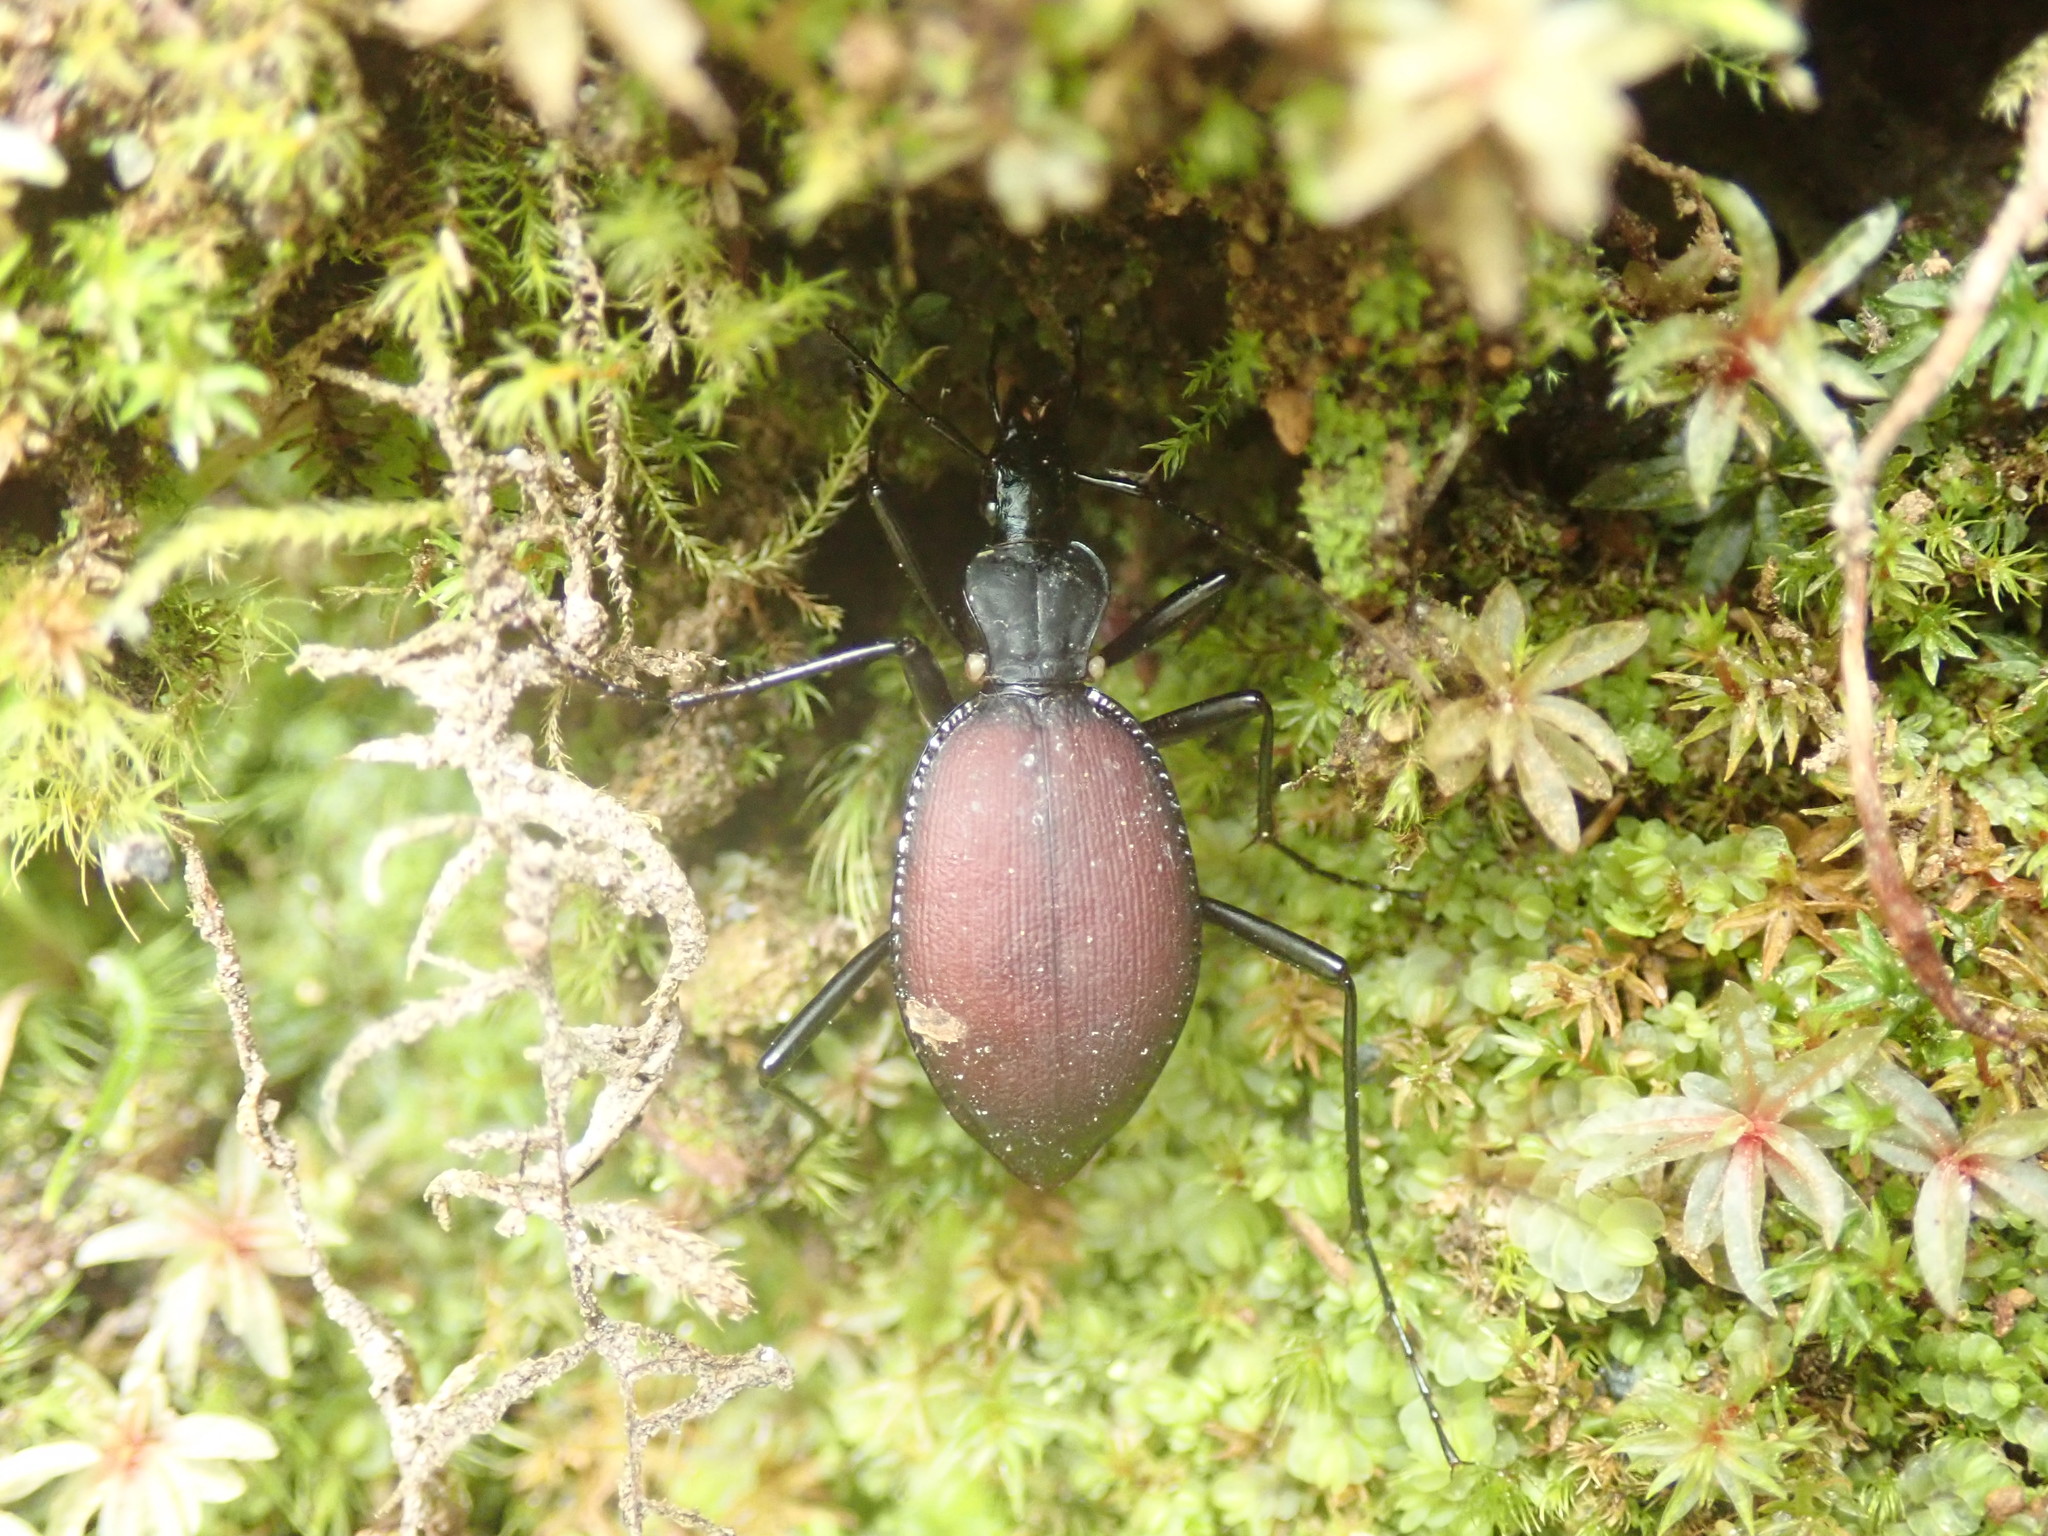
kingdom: Animalia
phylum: Arthropoda
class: Insecta
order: Coleoptera
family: Carabidae
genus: Scaphinotus
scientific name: Scaphinotus angusticollis
